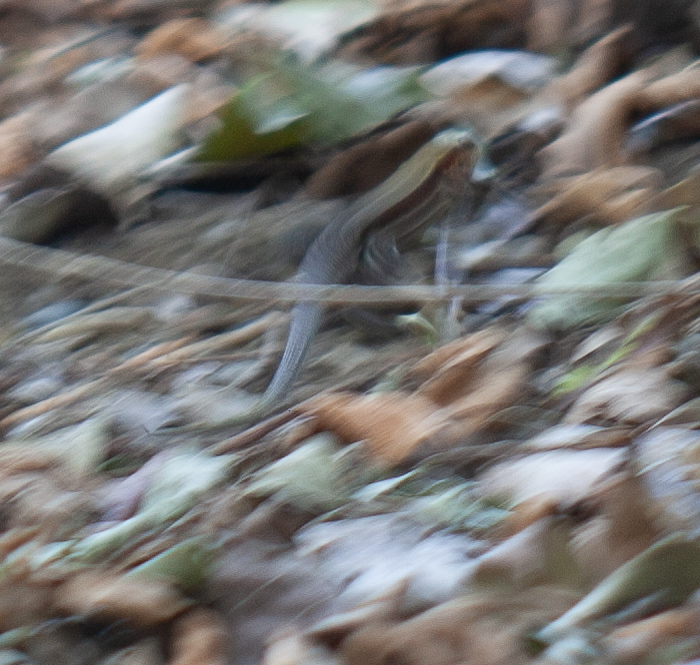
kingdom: Animalia
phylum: Chordata
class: Squamata
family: Teiidae
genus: Holcosus
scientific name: Holcosus undulatus
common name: Rainbow ameiva
